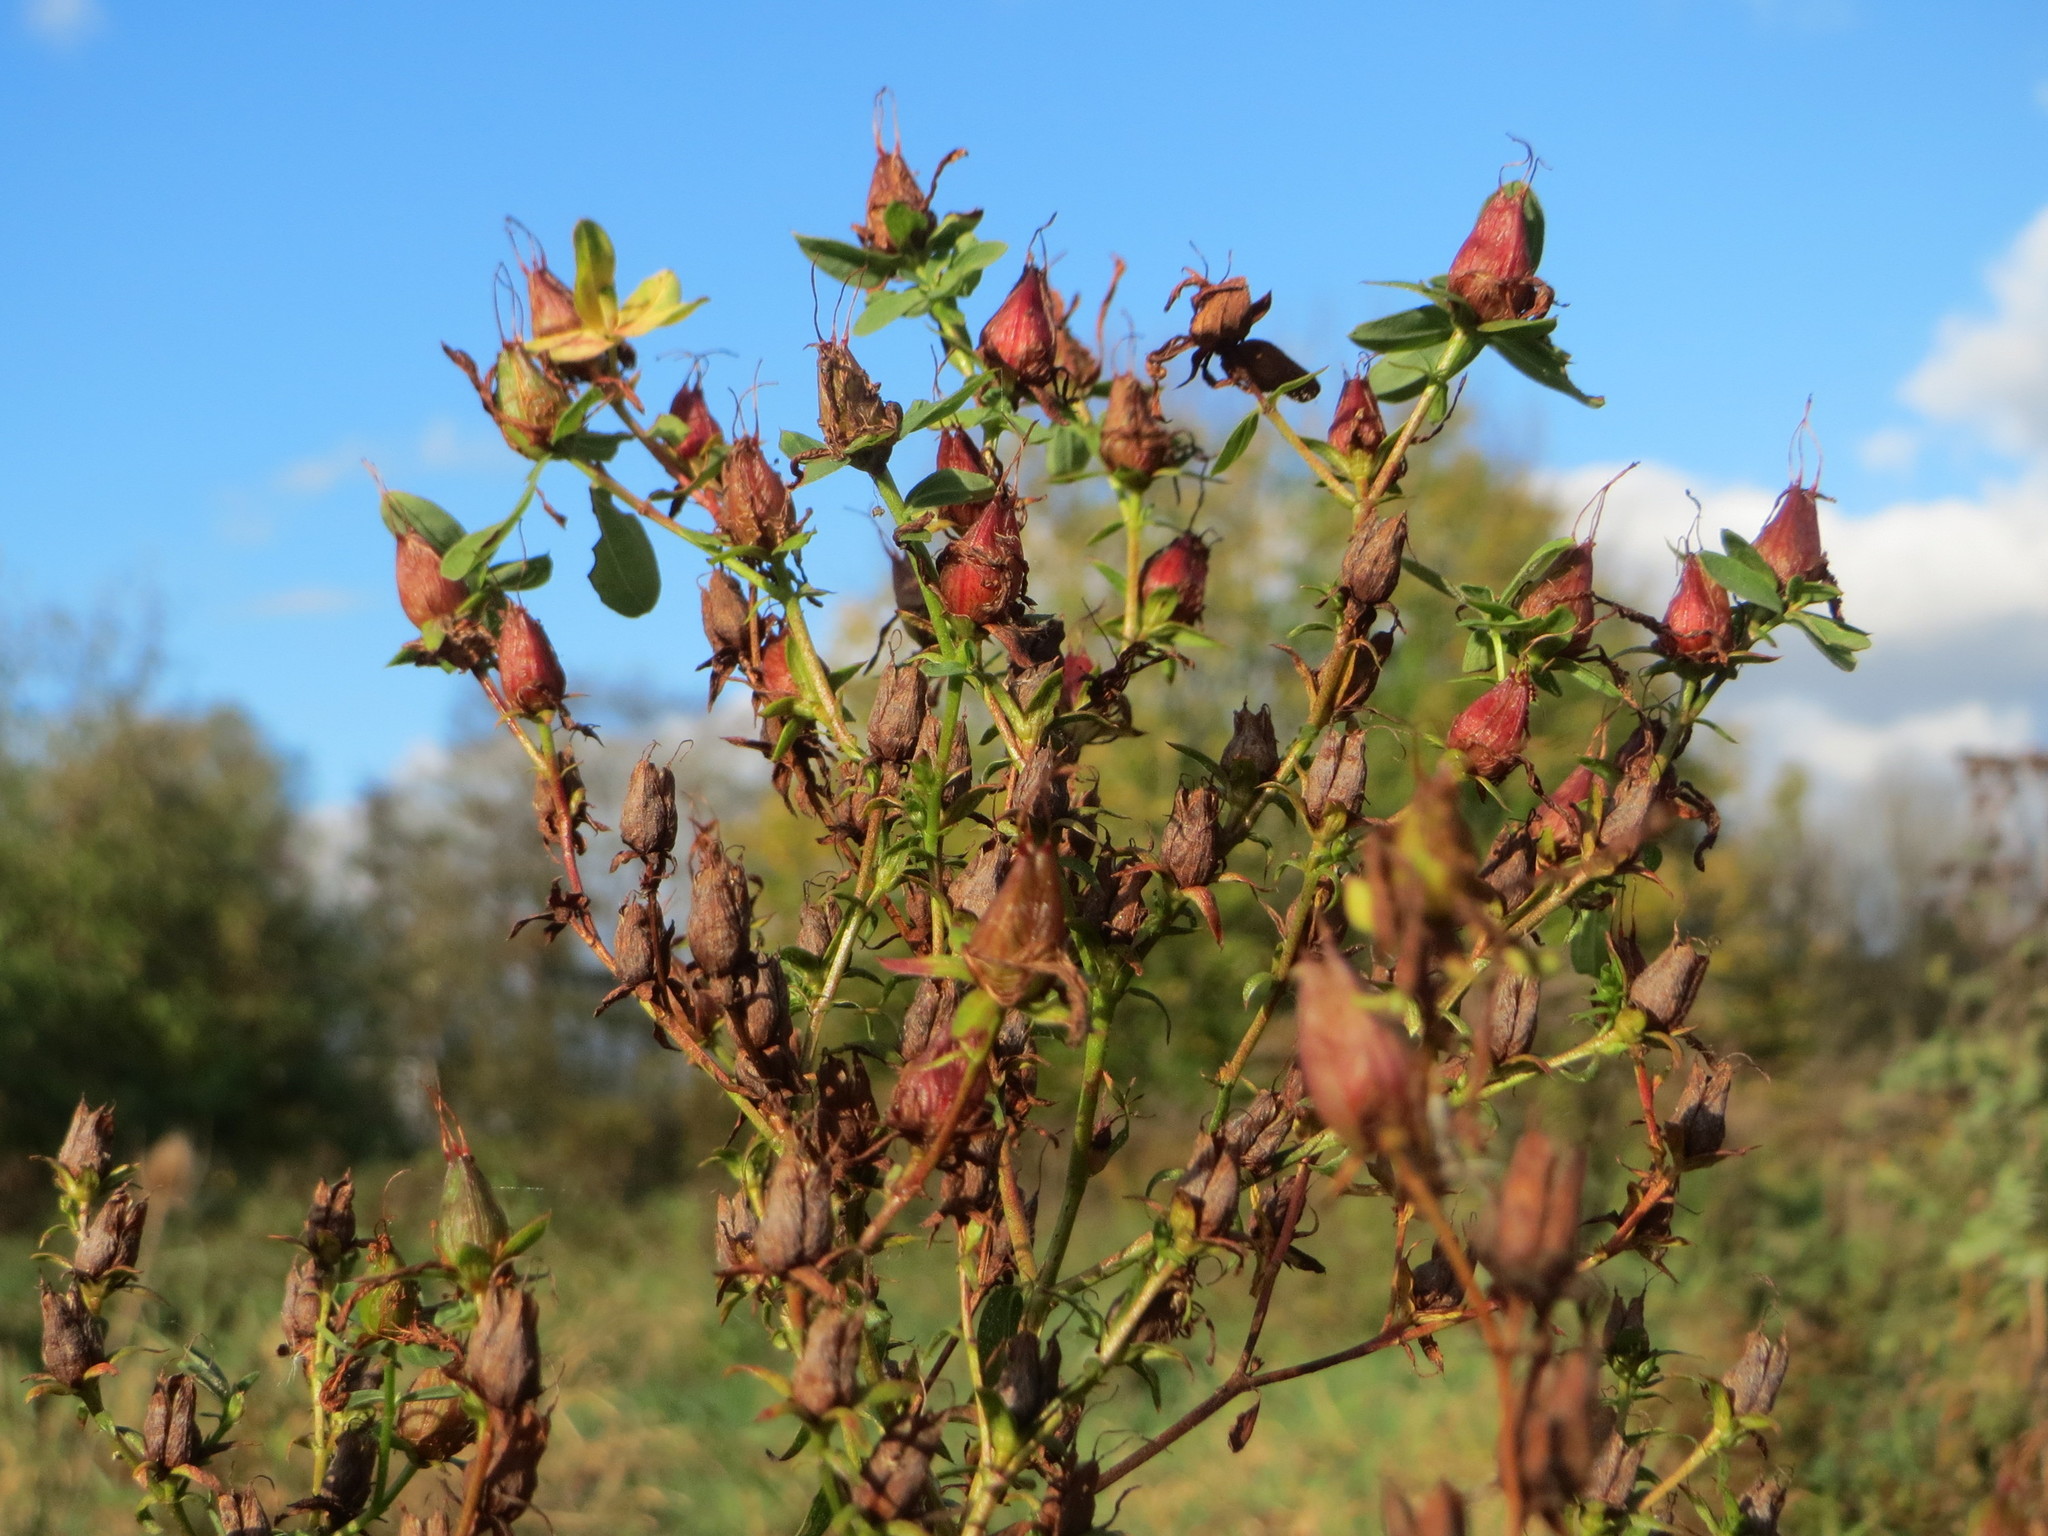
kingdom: Plantae
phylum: Tracheophyta
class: Magnoliopsida
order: Malpighiales
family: Hypericaceae
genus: Hypericum
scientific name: Hypericum perforatum
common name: Common st. johnswort
